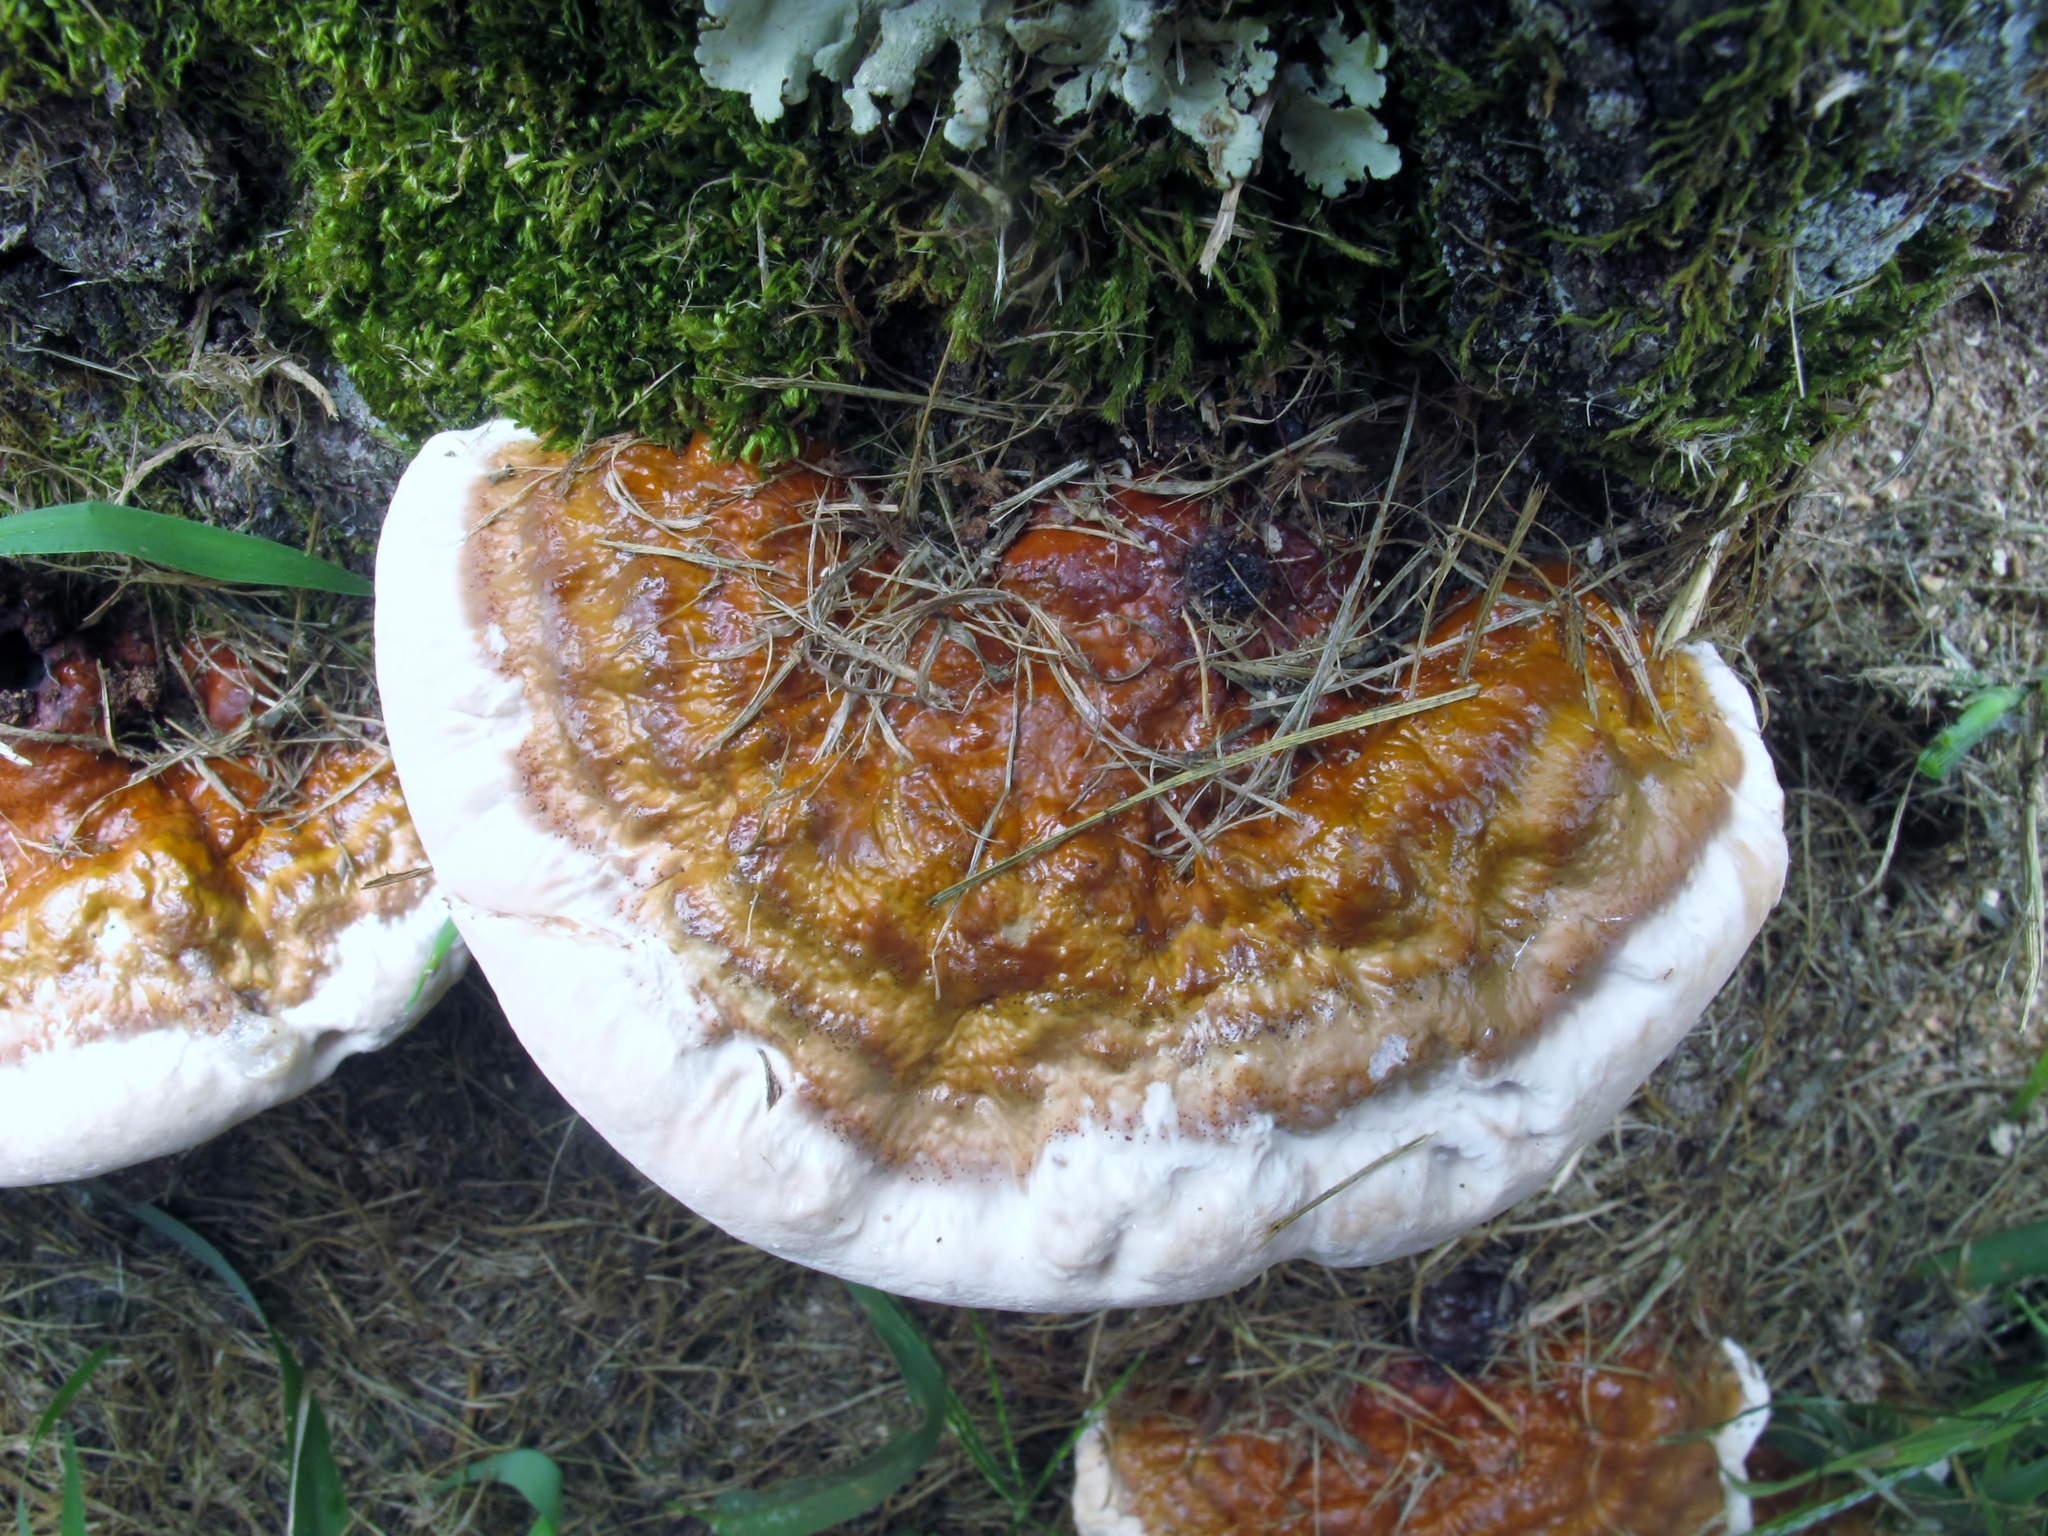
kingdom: Fungi
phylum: Basidiomycota
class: Agaricomycetes
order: Polyporales
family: Polyporaceae
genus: Ganoderma
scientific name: Ganoderma resinaceum
